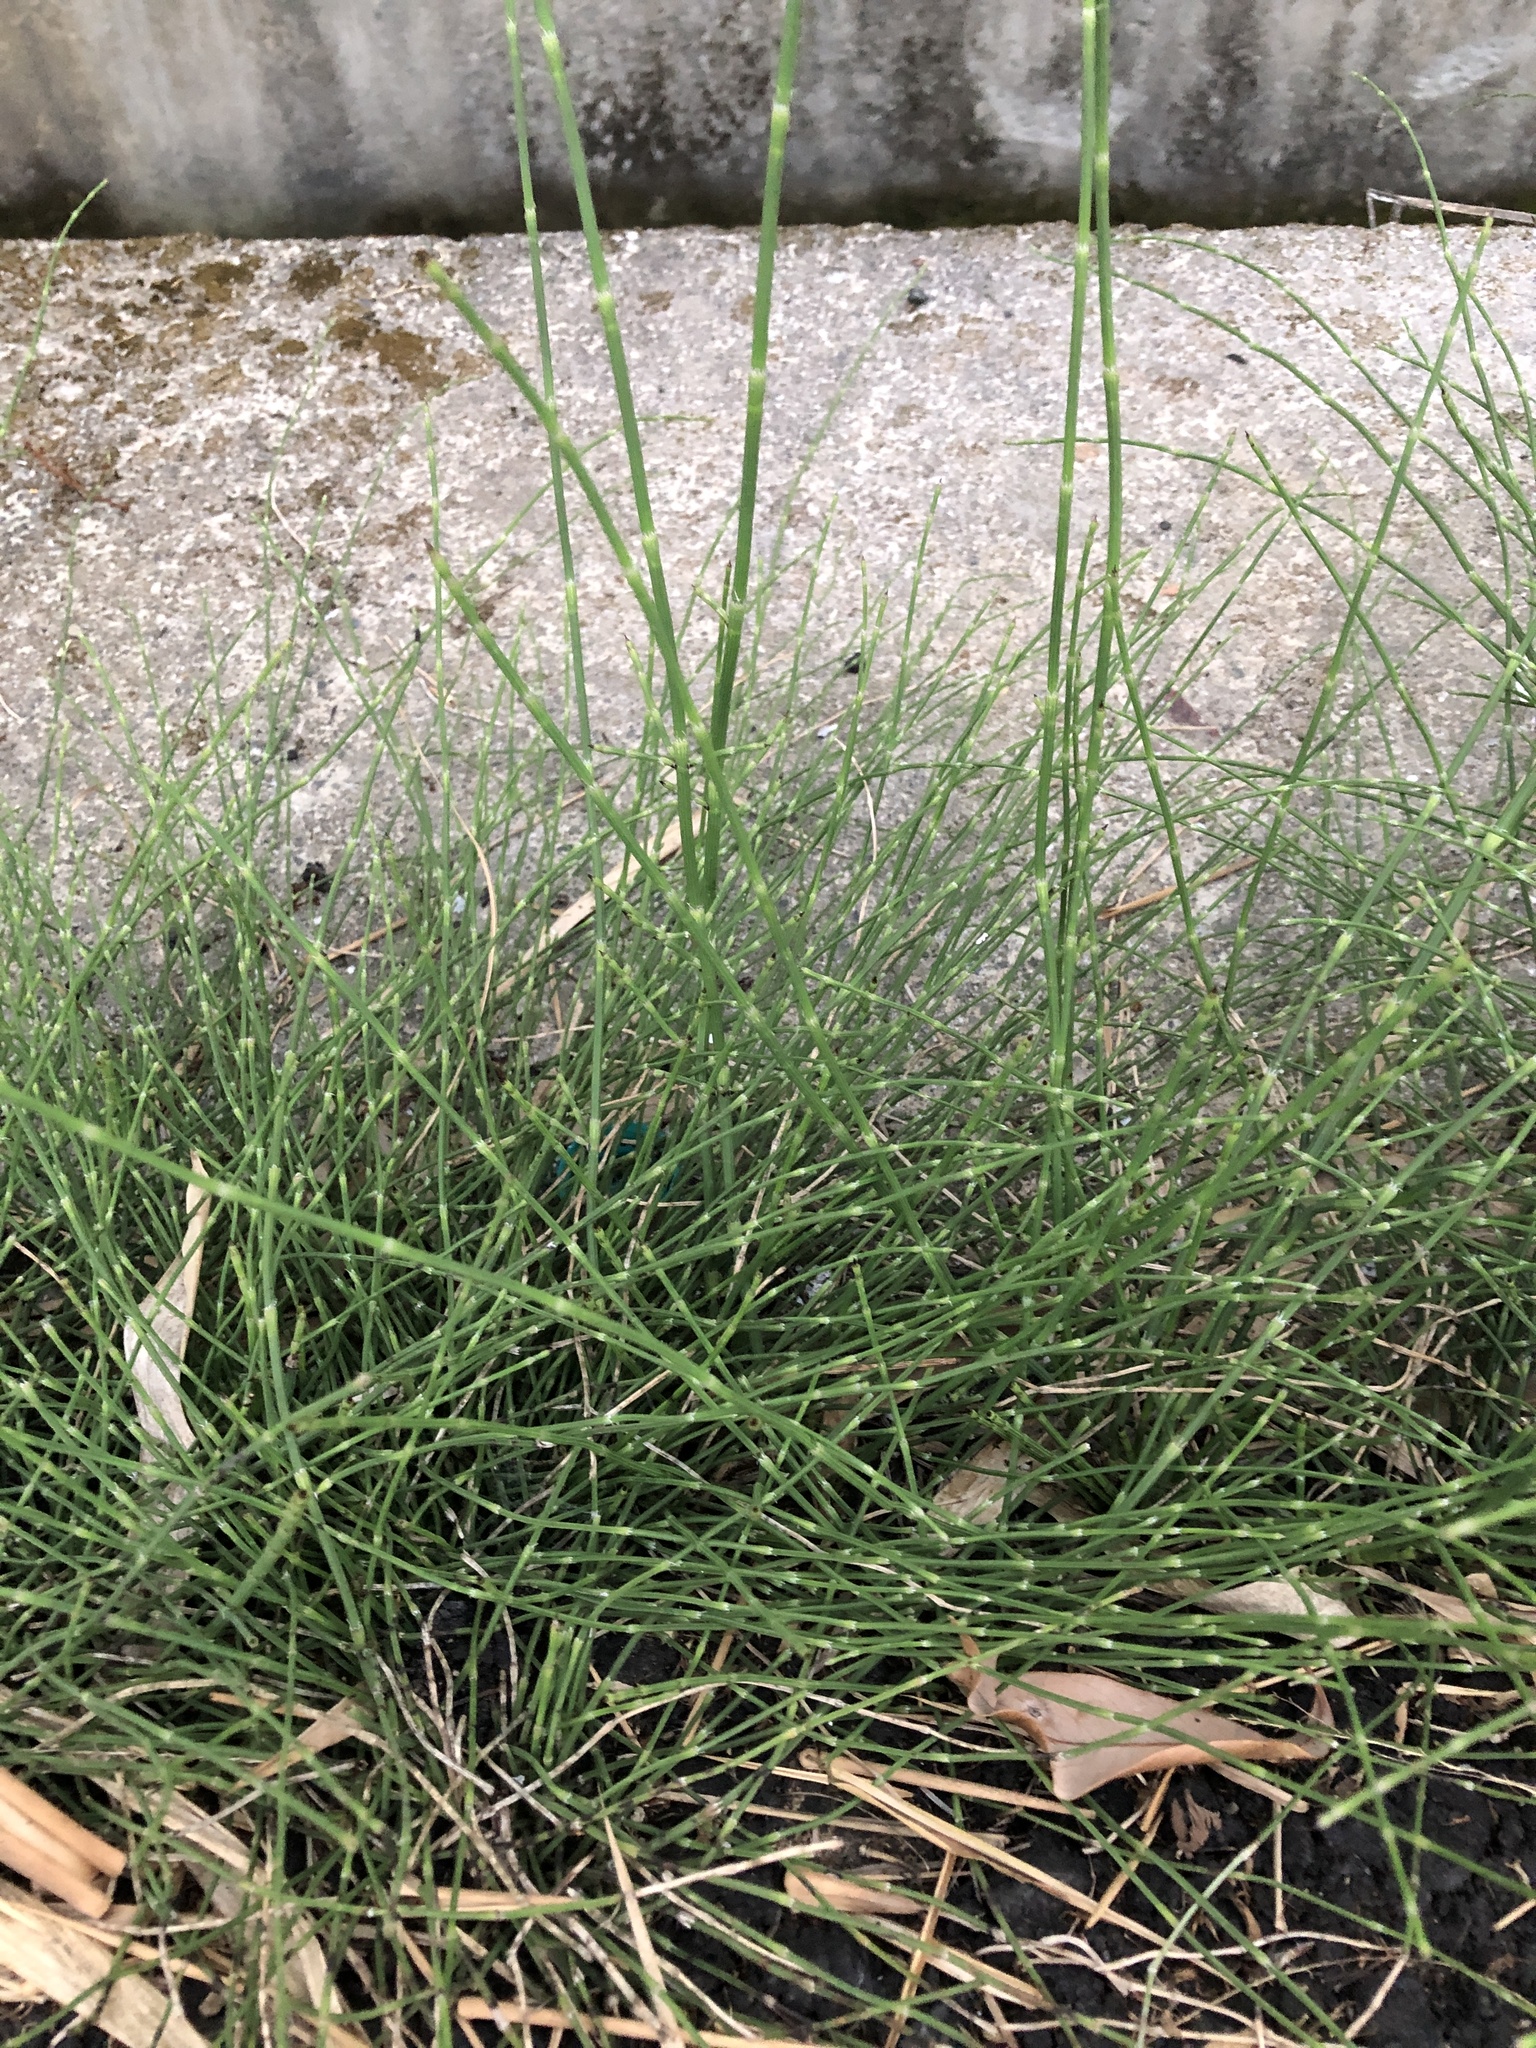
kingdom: Plantae
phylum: Tracheophyta
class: Polypodiopsida
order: Equisetales
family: Equisetaceae
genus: Equisetum
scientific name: Equisetum ramosissimum
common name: Branched horsetail
